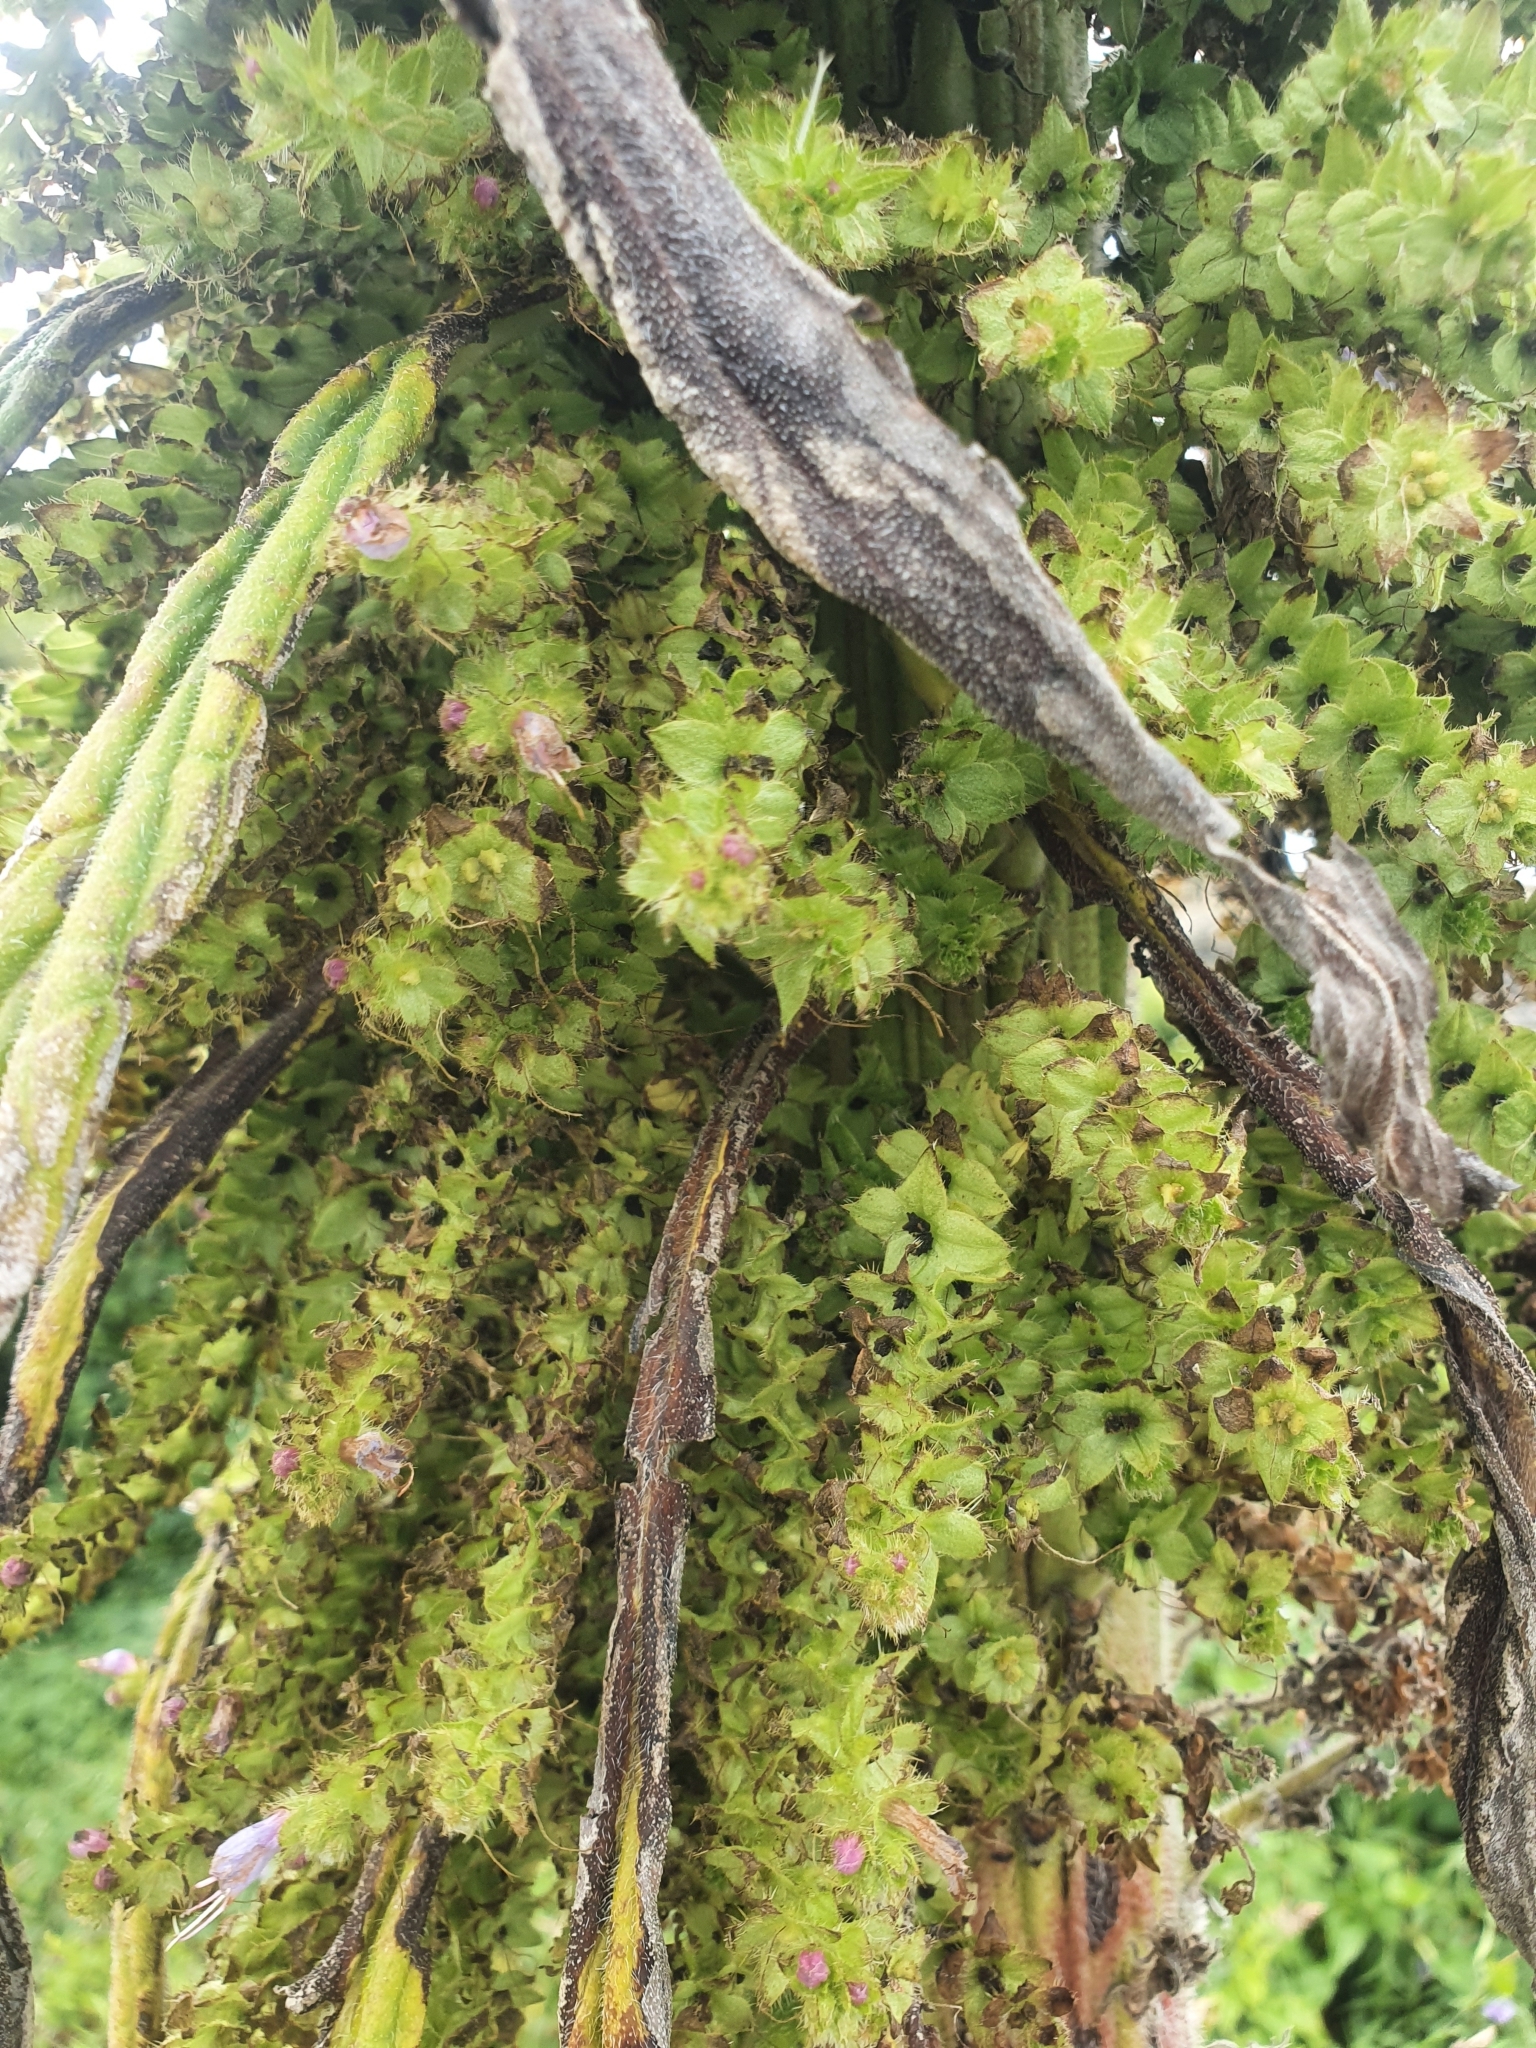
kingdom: Plantae
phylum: Tracheophyta
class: Magnoliopsida
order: Boraginales
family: Boraginaceae
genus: Echium
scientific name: Echium pininana
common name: Giant viper's-bugloss
